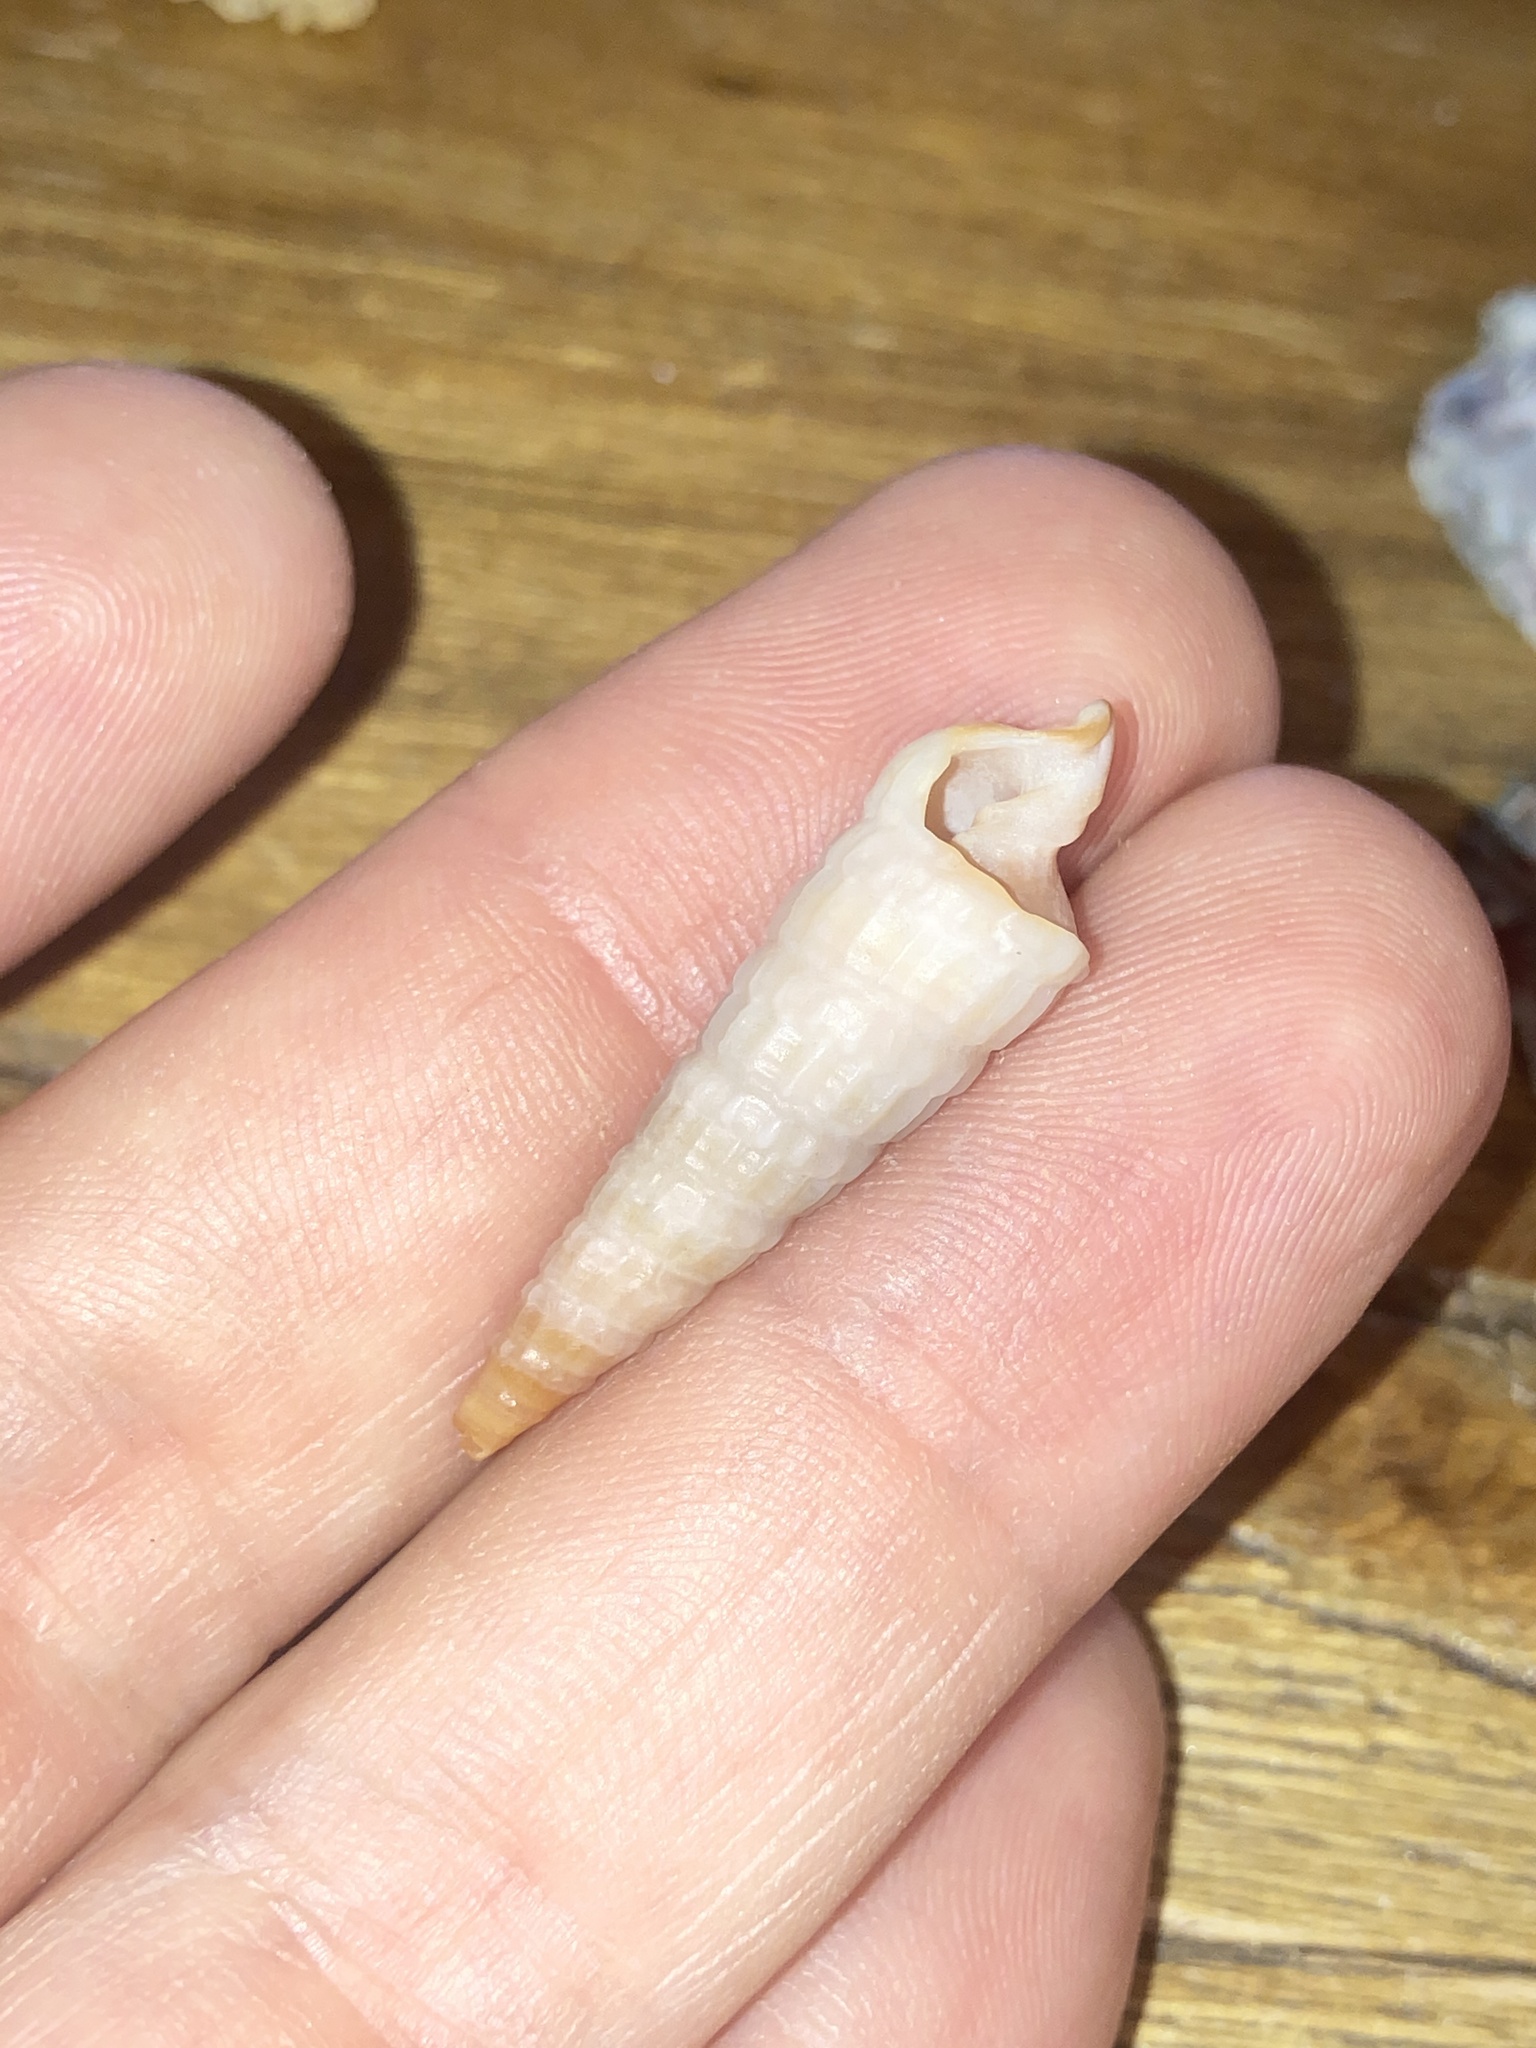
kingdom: Animalia
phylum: Mollusca
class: Gastropoda
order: Neogastropoda
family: Terebridae
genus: Neoterebra
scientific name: Neoterebra dislocata
